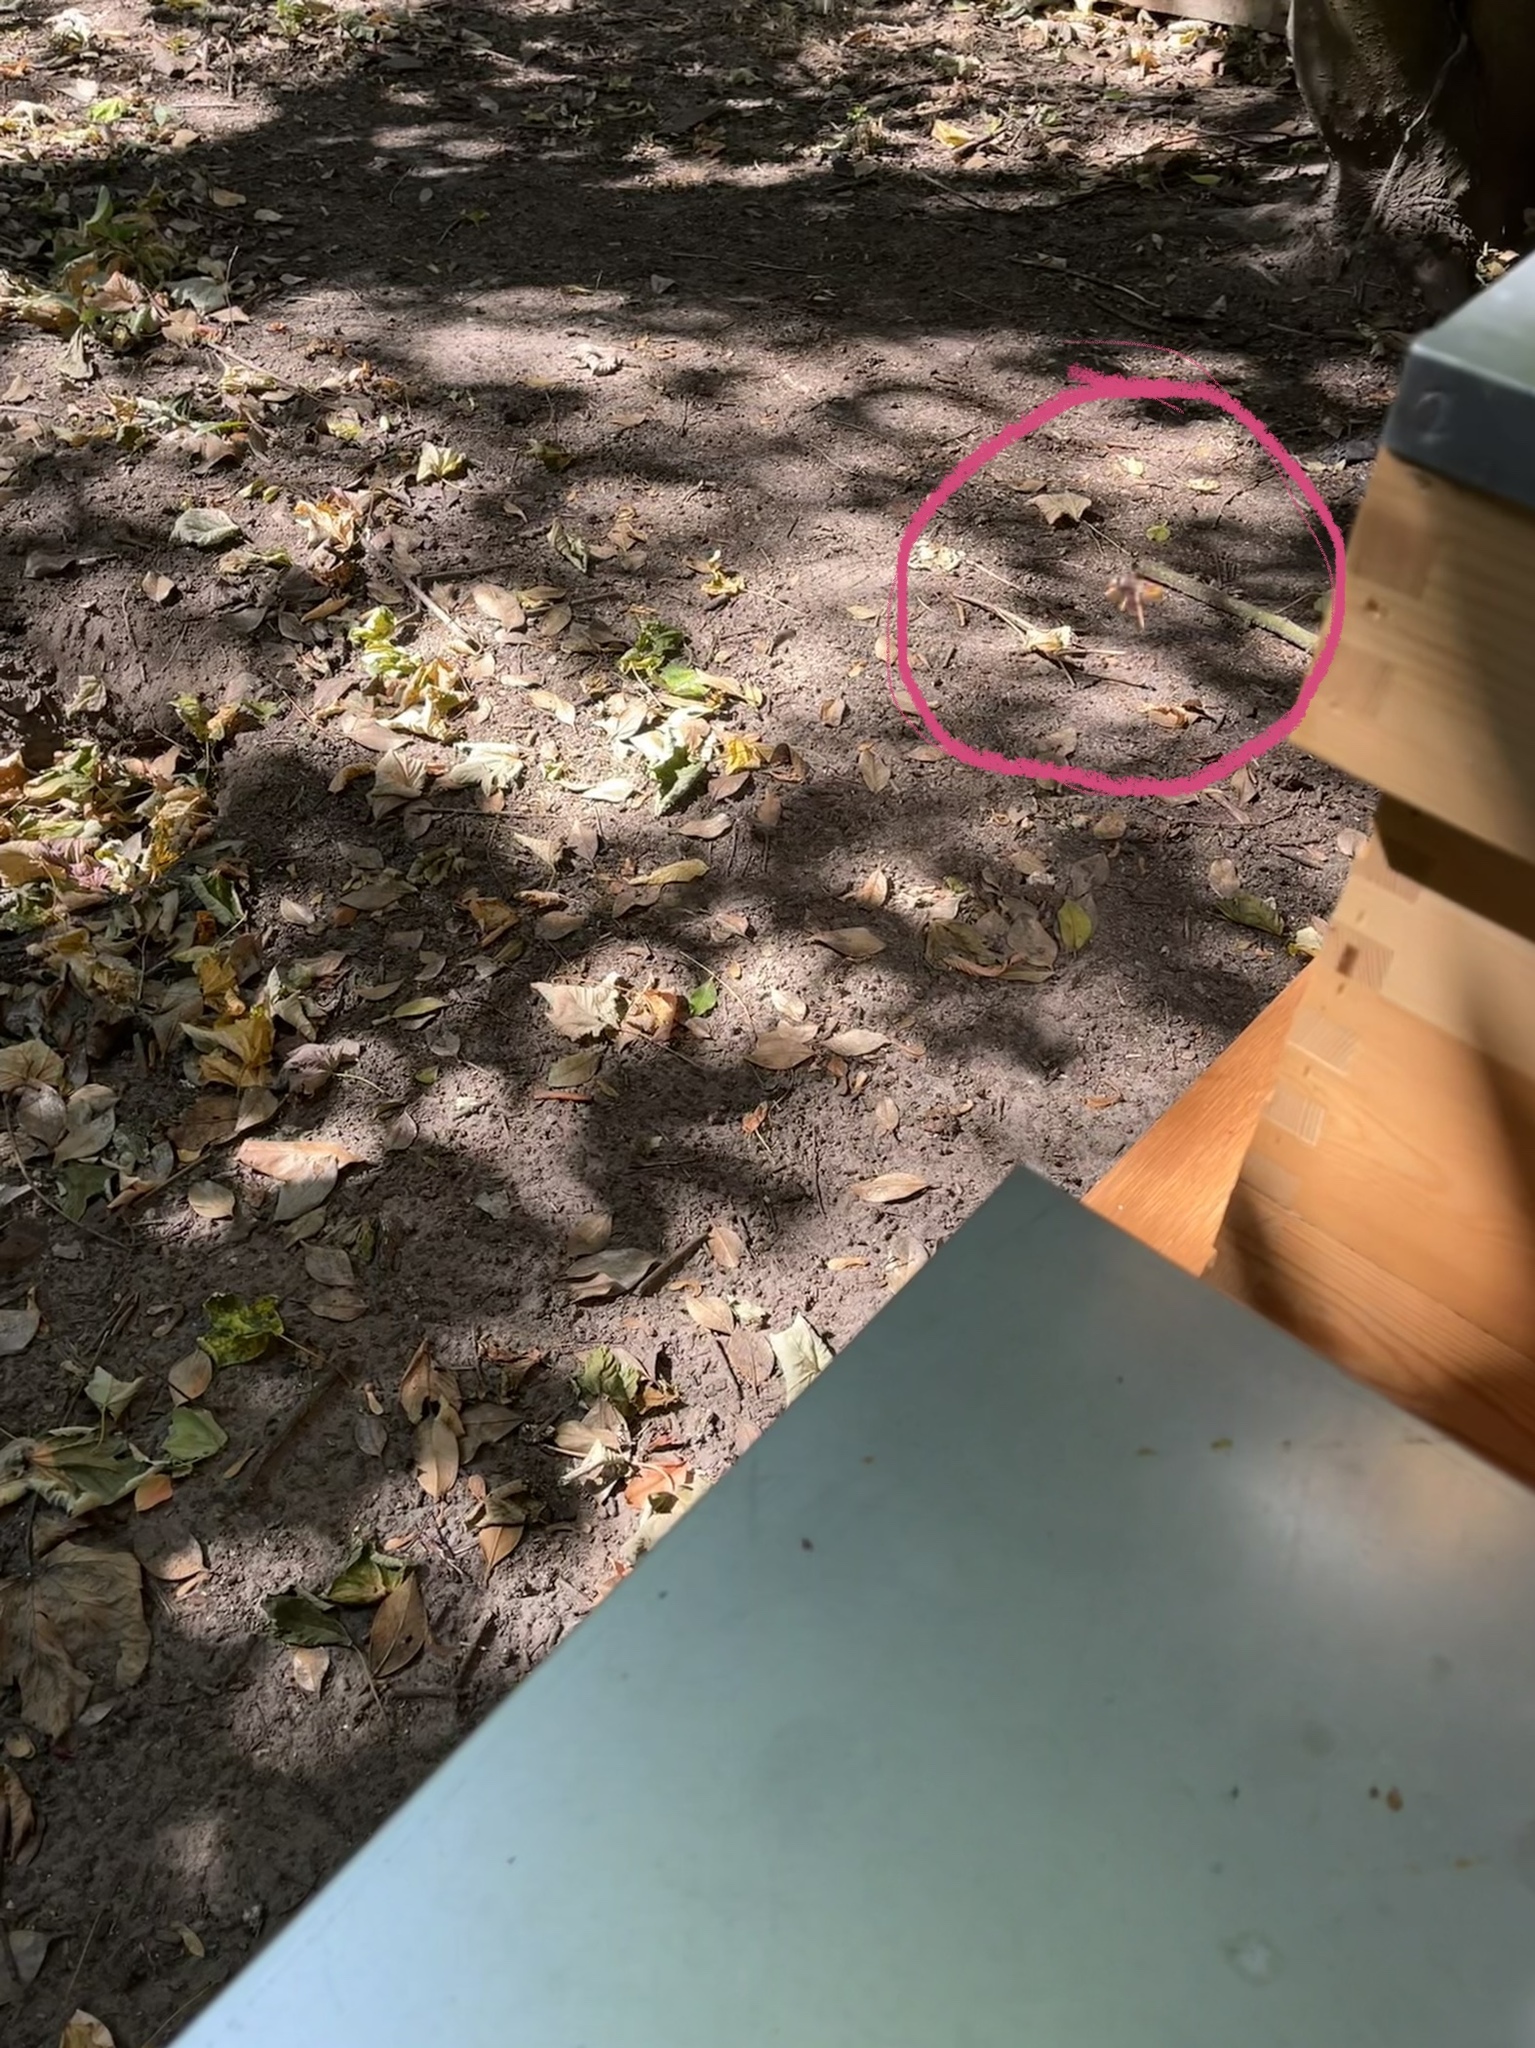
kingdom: Animalia
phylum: Arthropoda
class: Insecta
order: Hymenoptera
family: Vespidae
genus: Vespa
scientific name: Vespa velutina
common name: Asian hornet
